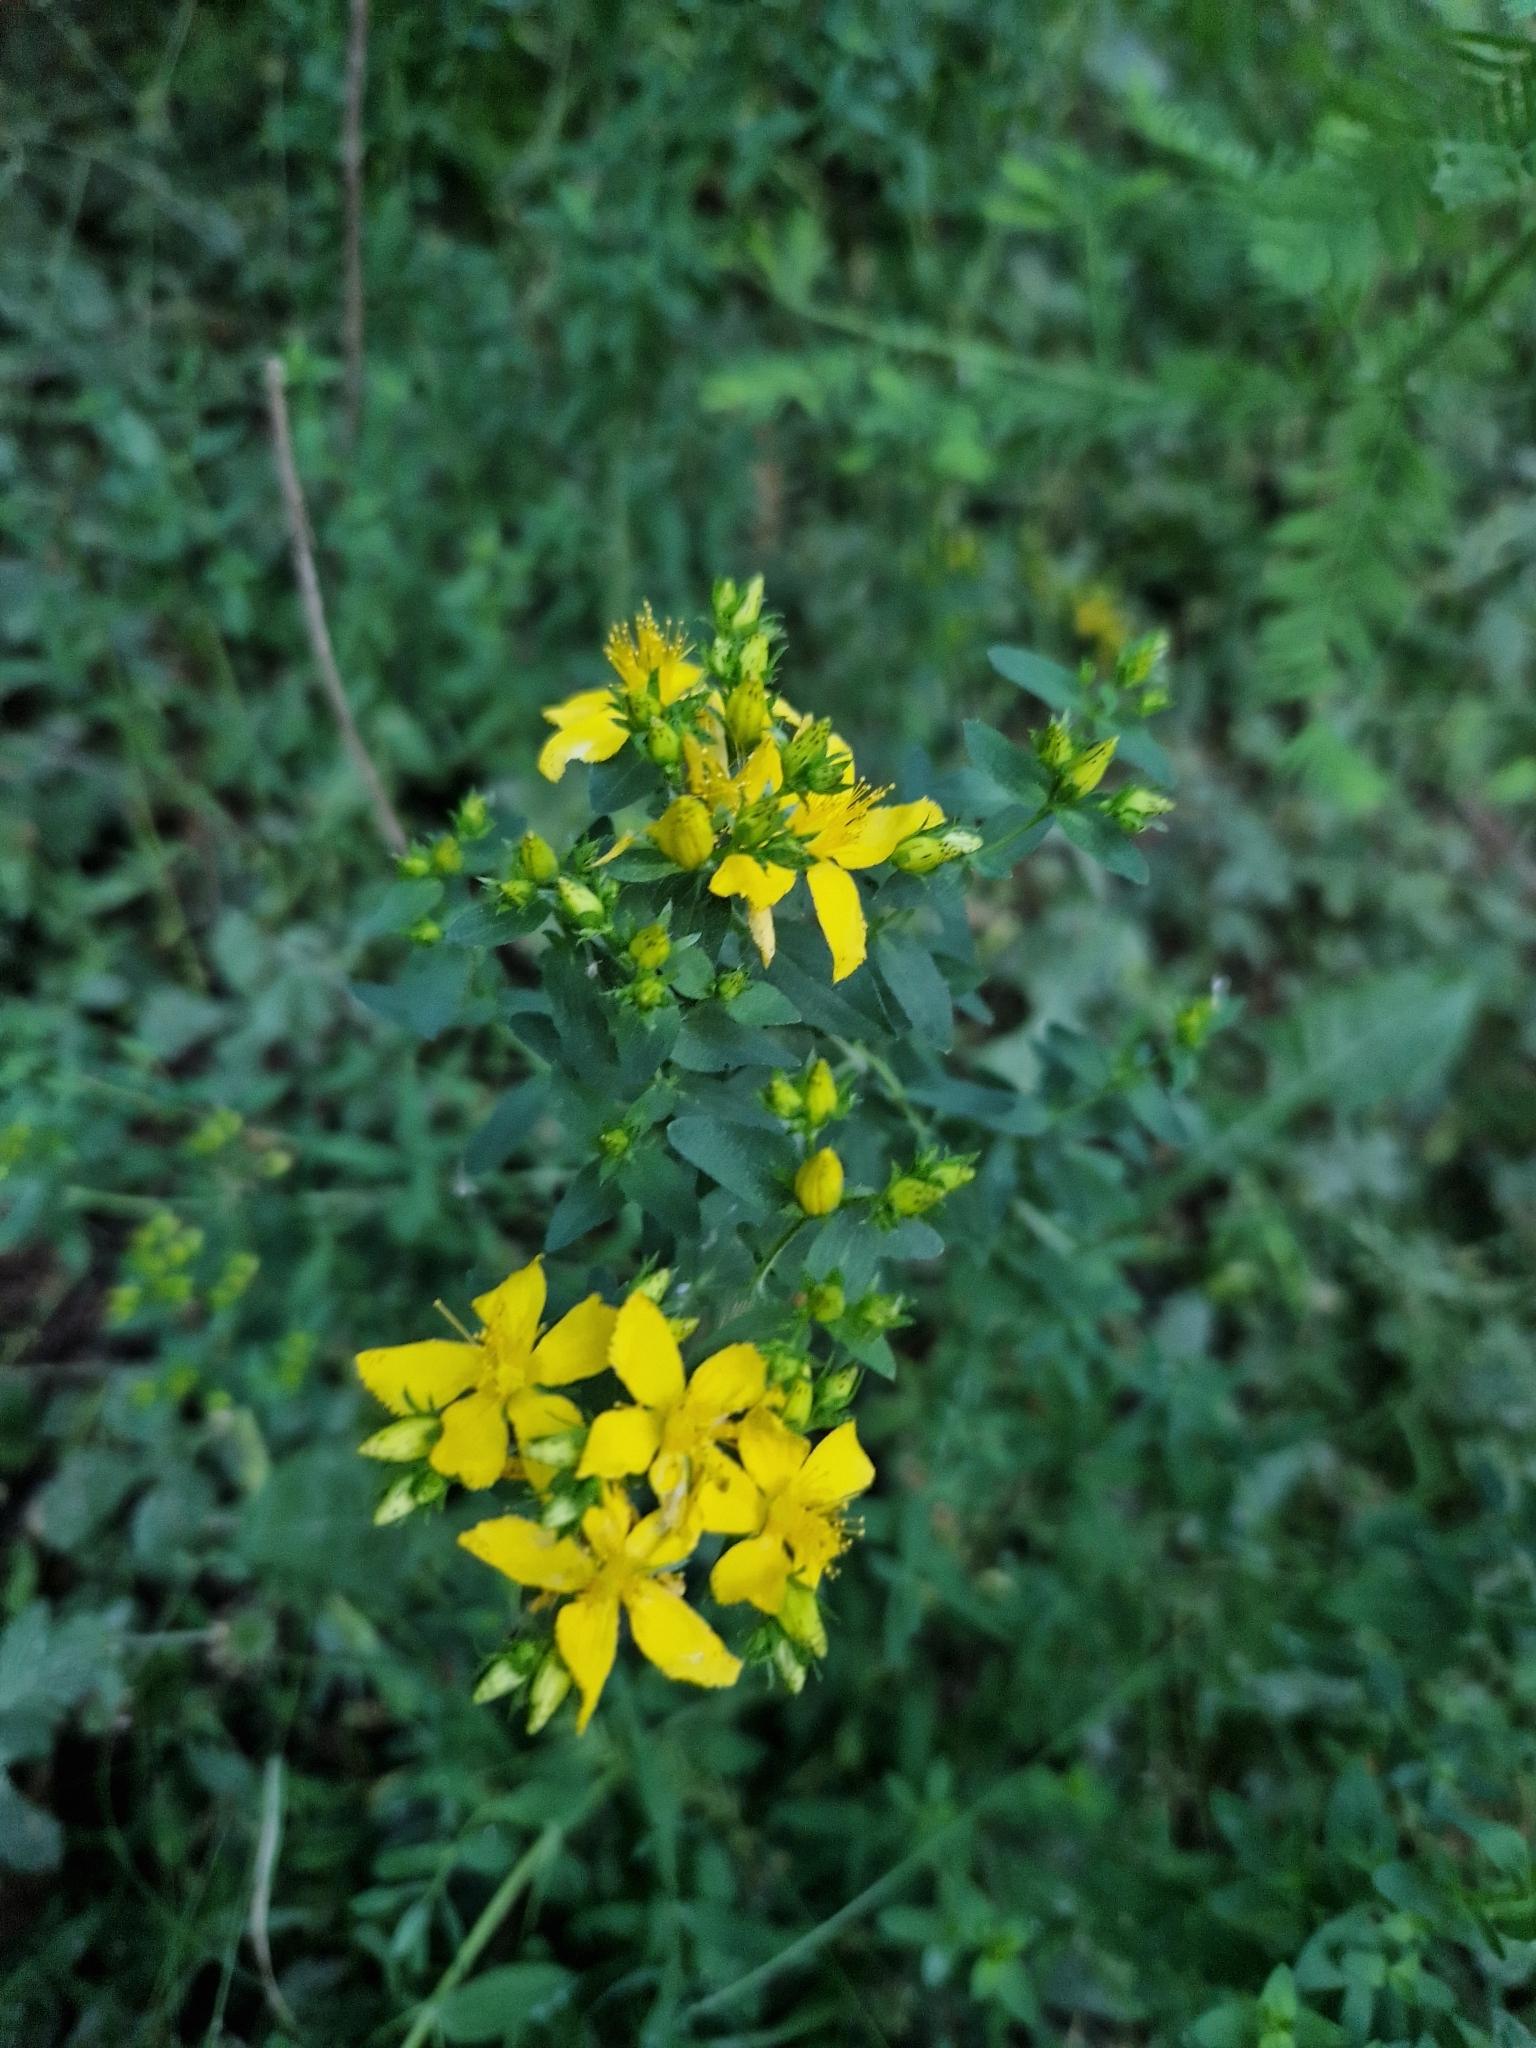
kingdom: Plantae
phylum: Tracheophyta
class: Magnoliopsida
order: Malpighiales
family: Hypericaceae
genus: Hypericum
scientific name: Hypericum perforatum
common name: Common st. johnswort
